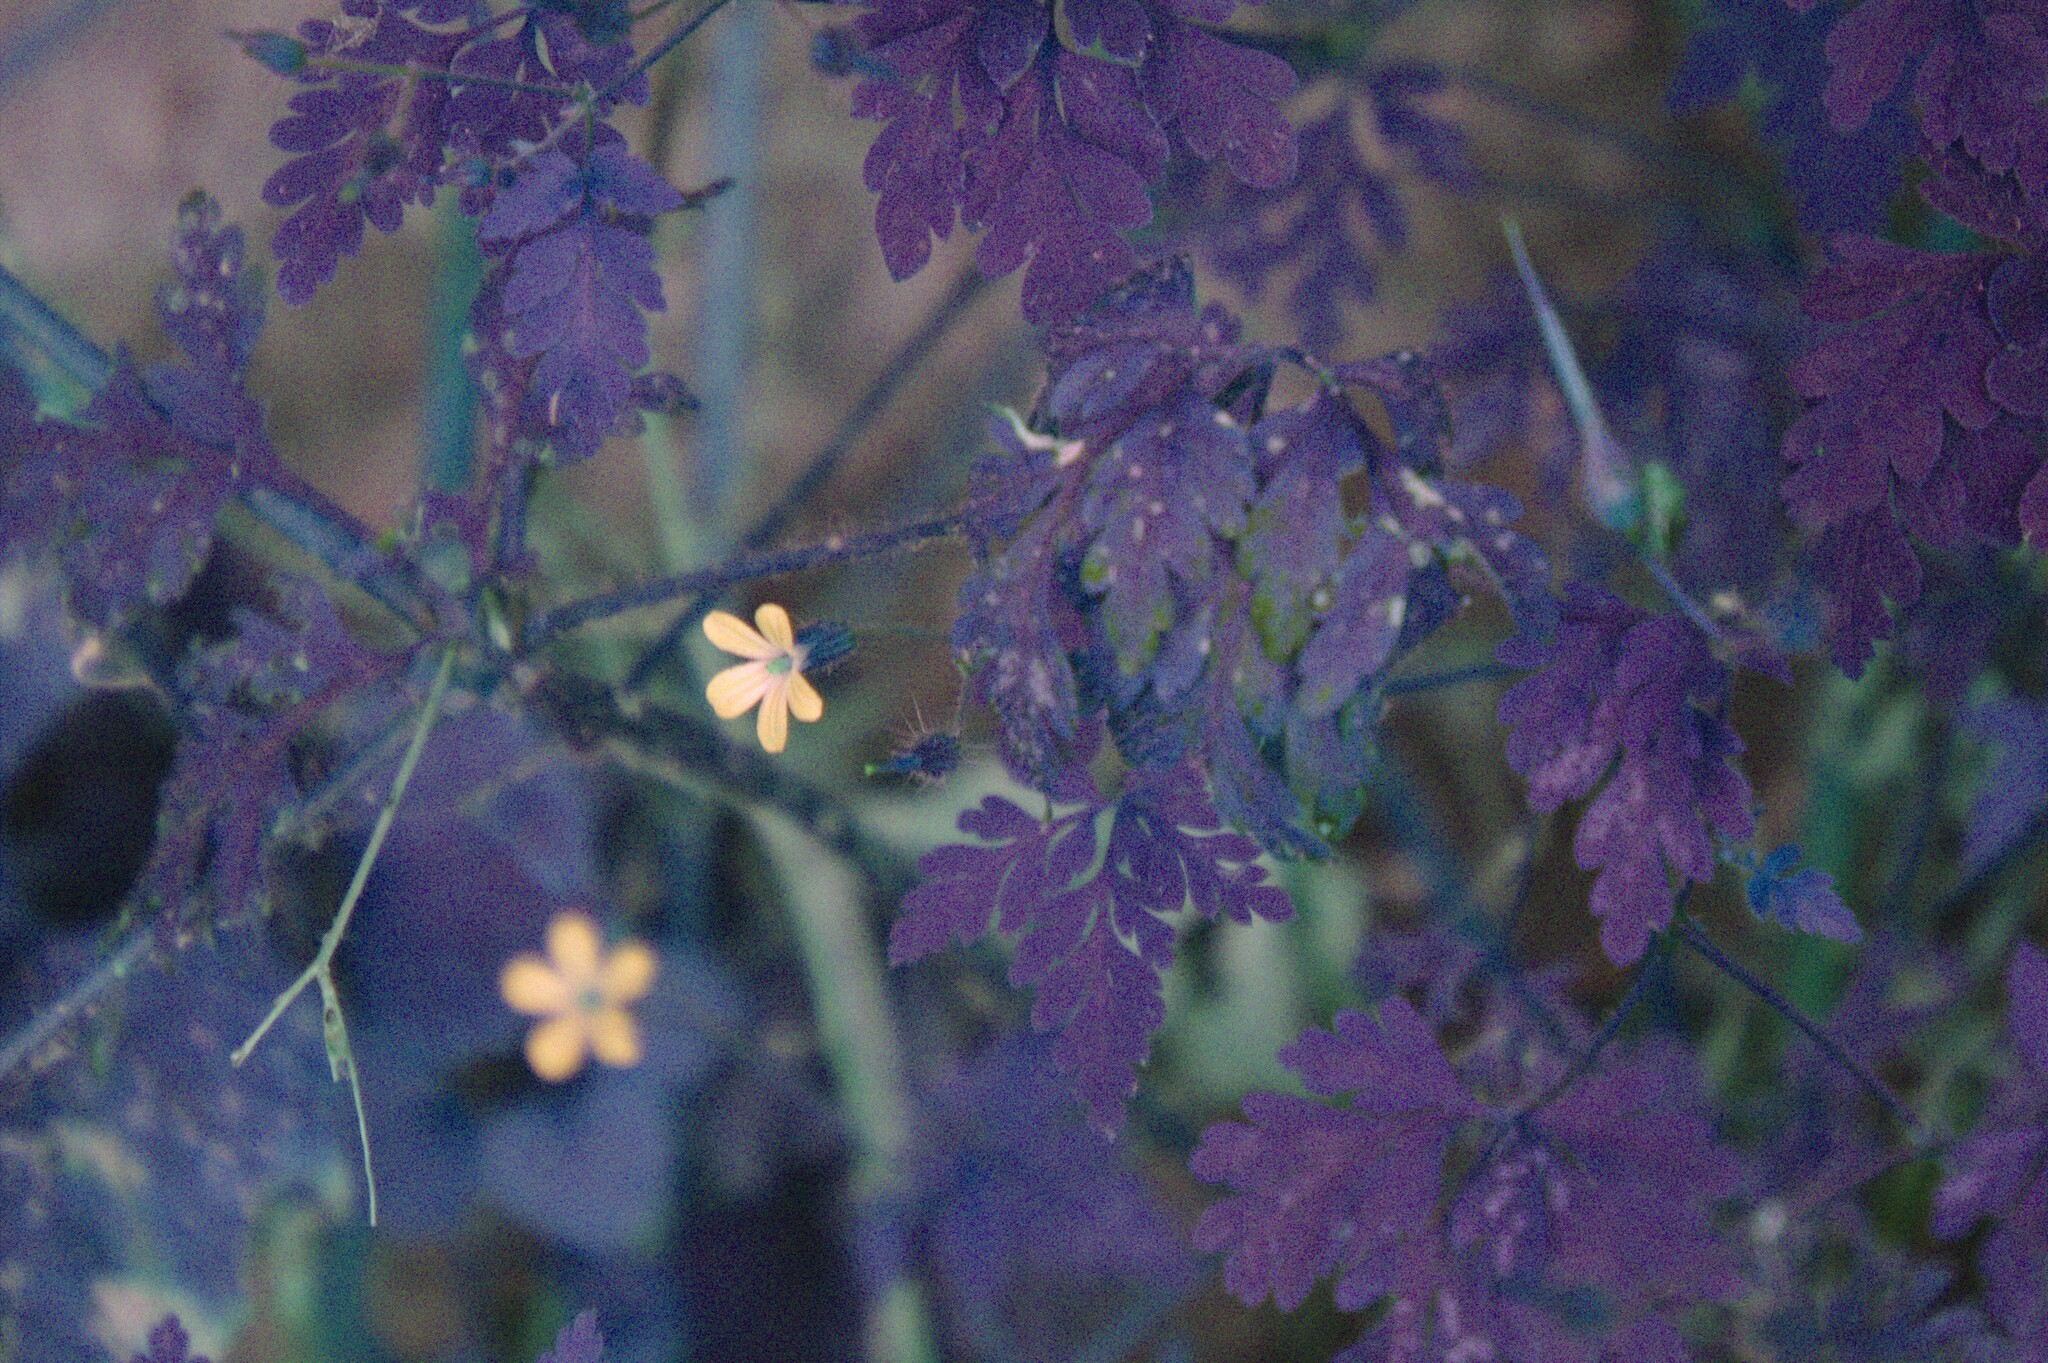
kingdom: Plantae
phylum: Tracheophyta
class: Magnoliopsida
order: Geraniales
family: Geraniaceae
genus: Geranium
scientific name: Geranium robertianum
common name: Herb-robert
